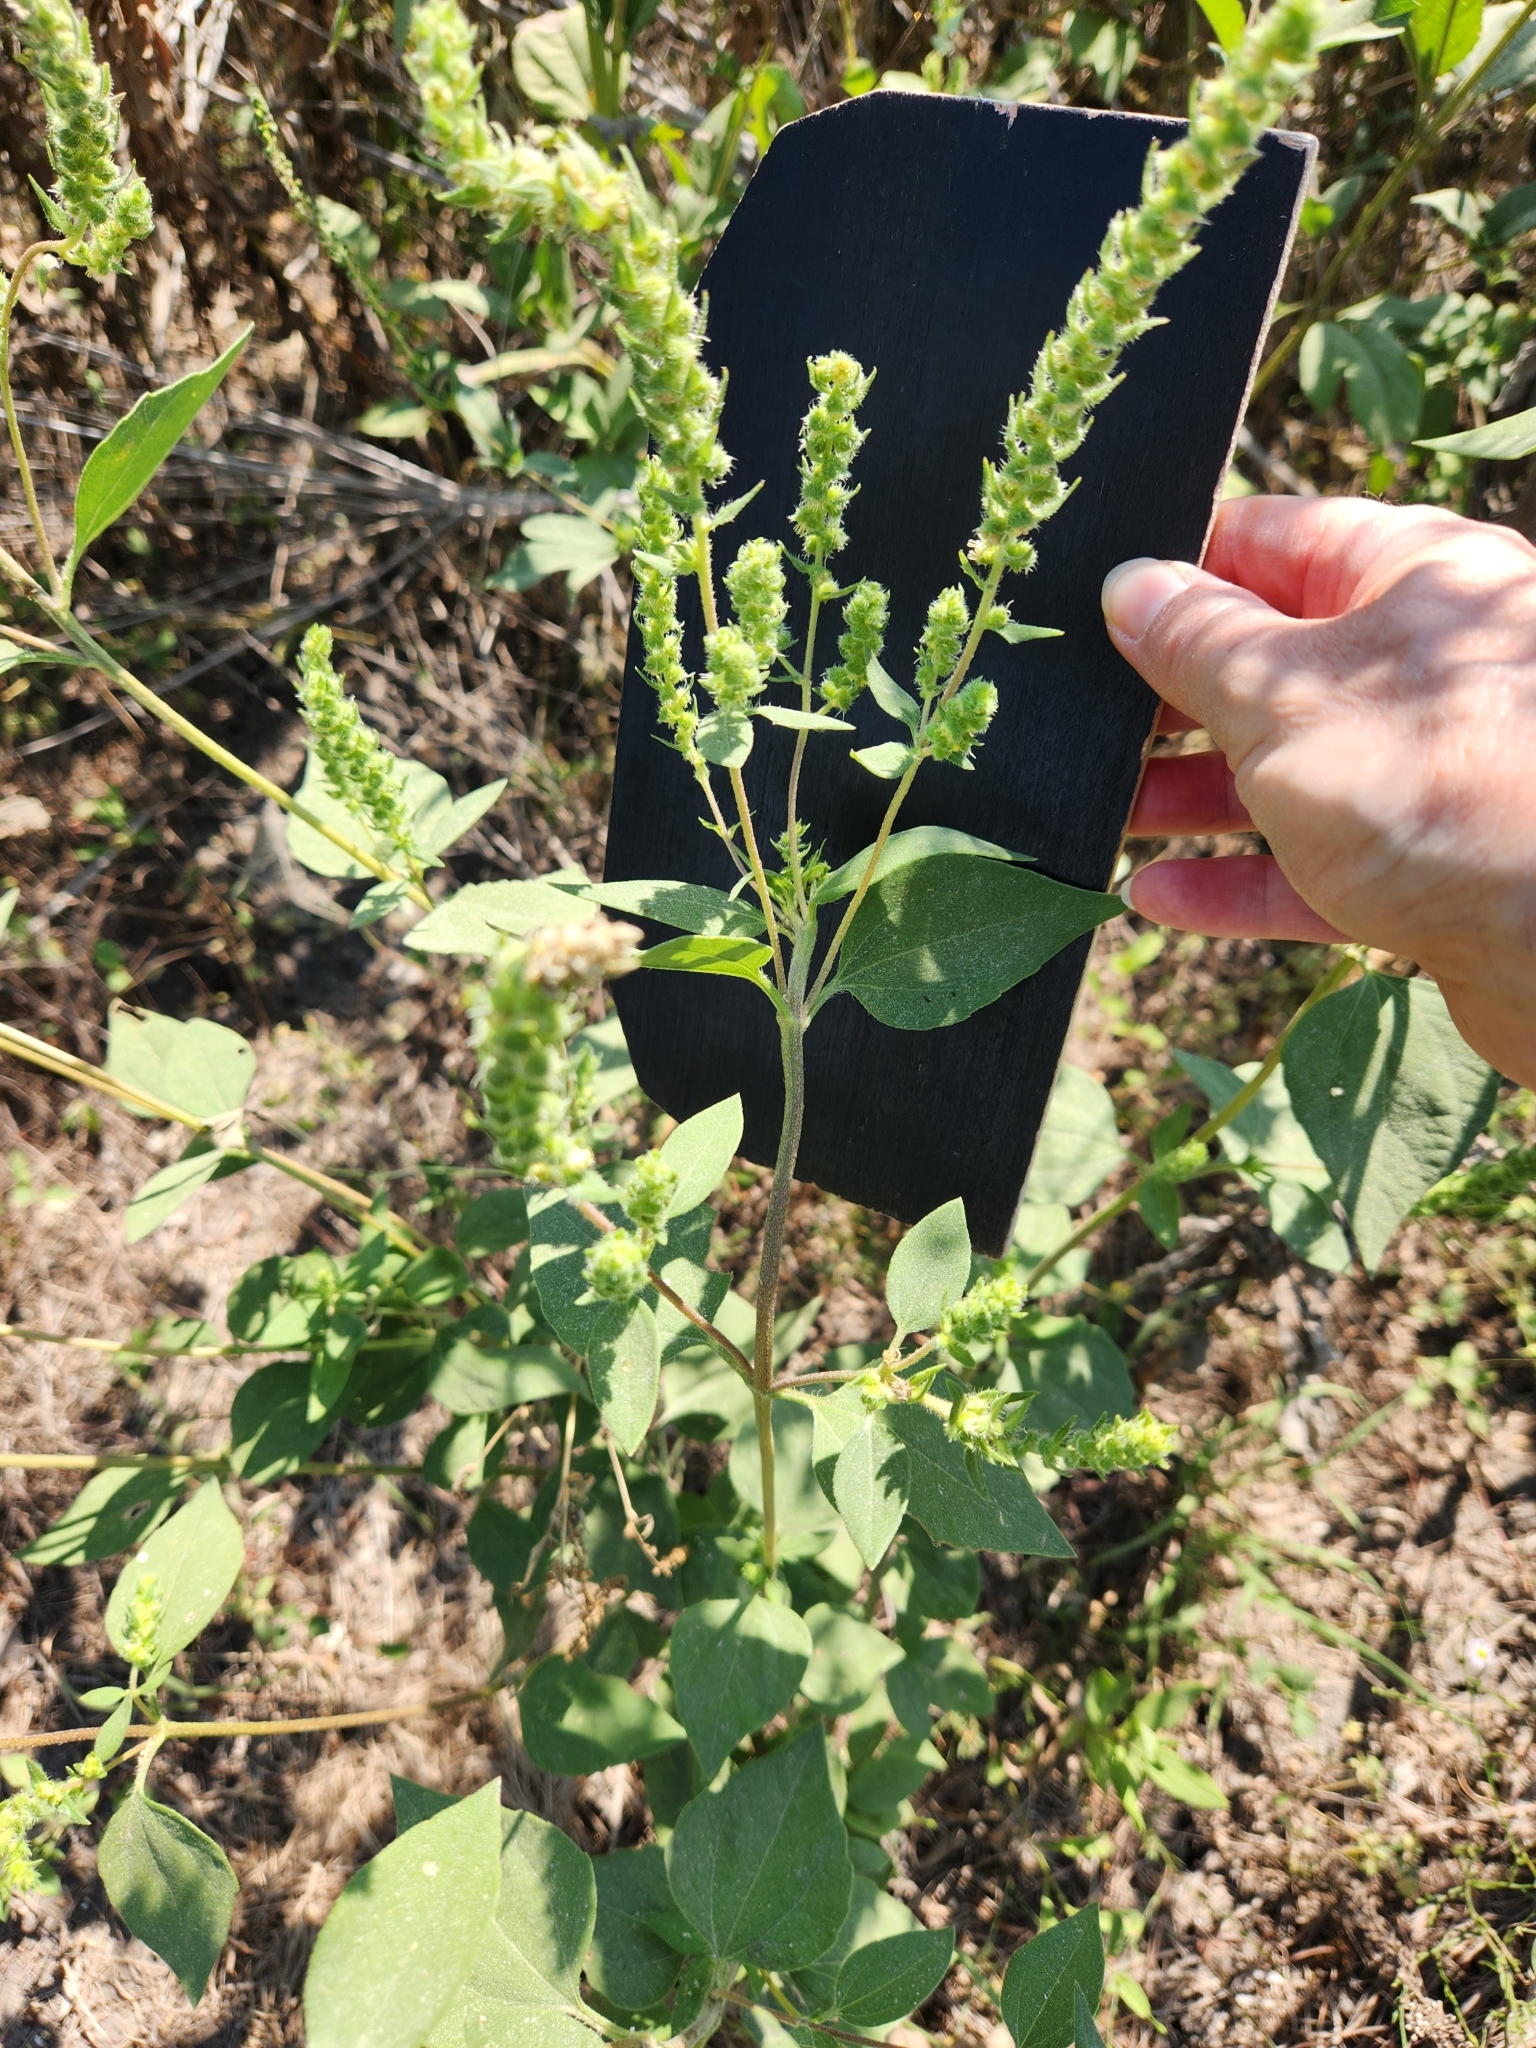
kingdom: Plantae
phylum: Tracheophyta
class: Magnoliopsida
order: Asterales
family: Asteraceae
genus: Iva
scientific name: Iva annua
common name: Marsh-elder
